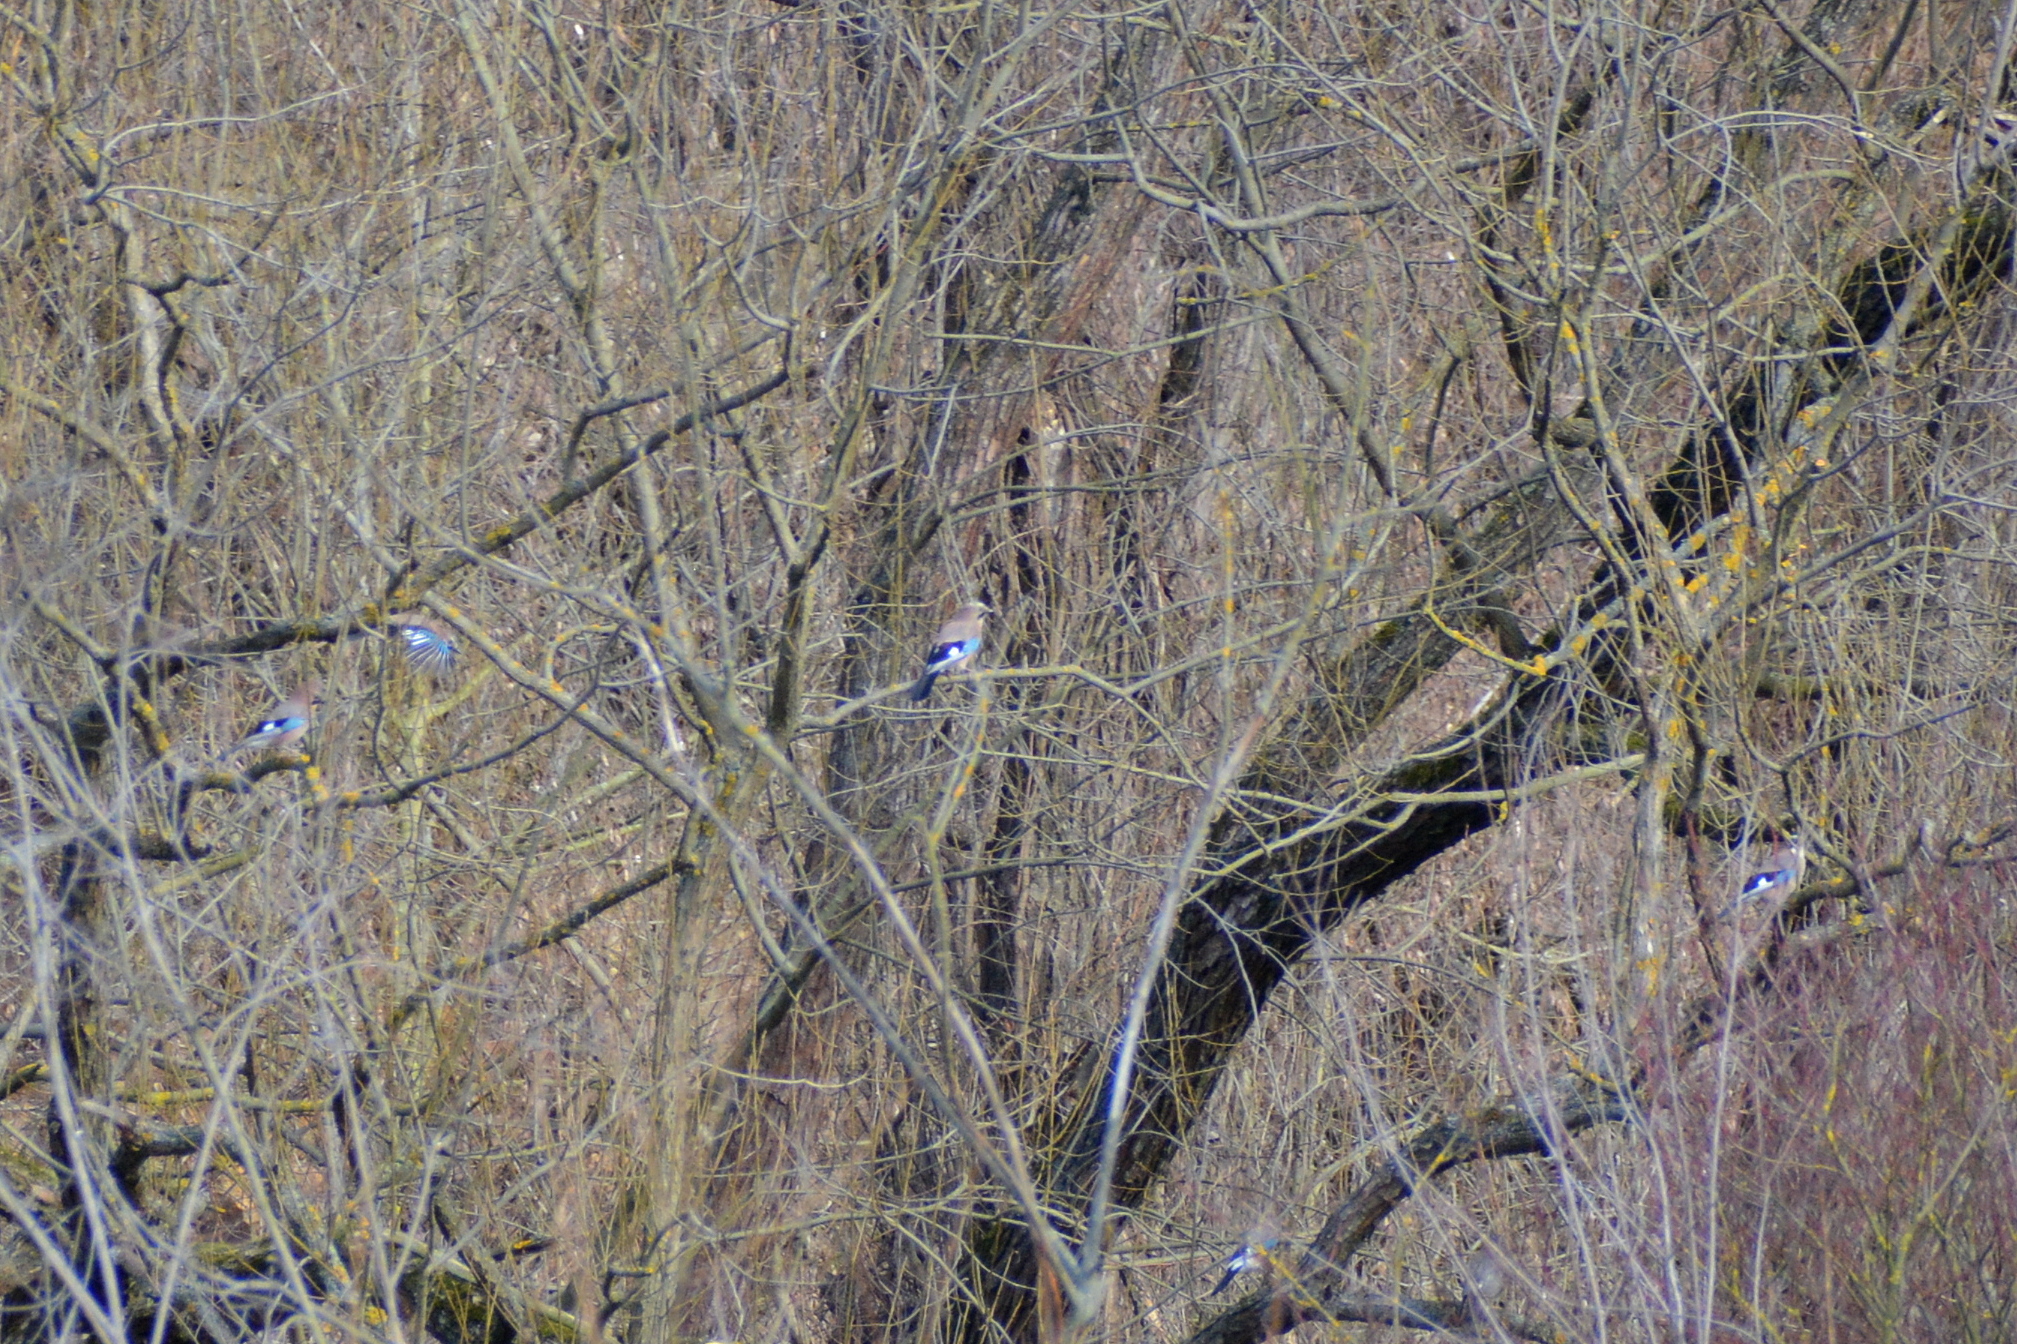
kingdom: Animalia
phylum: Chordata
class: Aves
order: Passeriformes
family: Corvidae
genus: Garrulus
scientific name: Garrulus glandarius
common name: Eurasian jay
